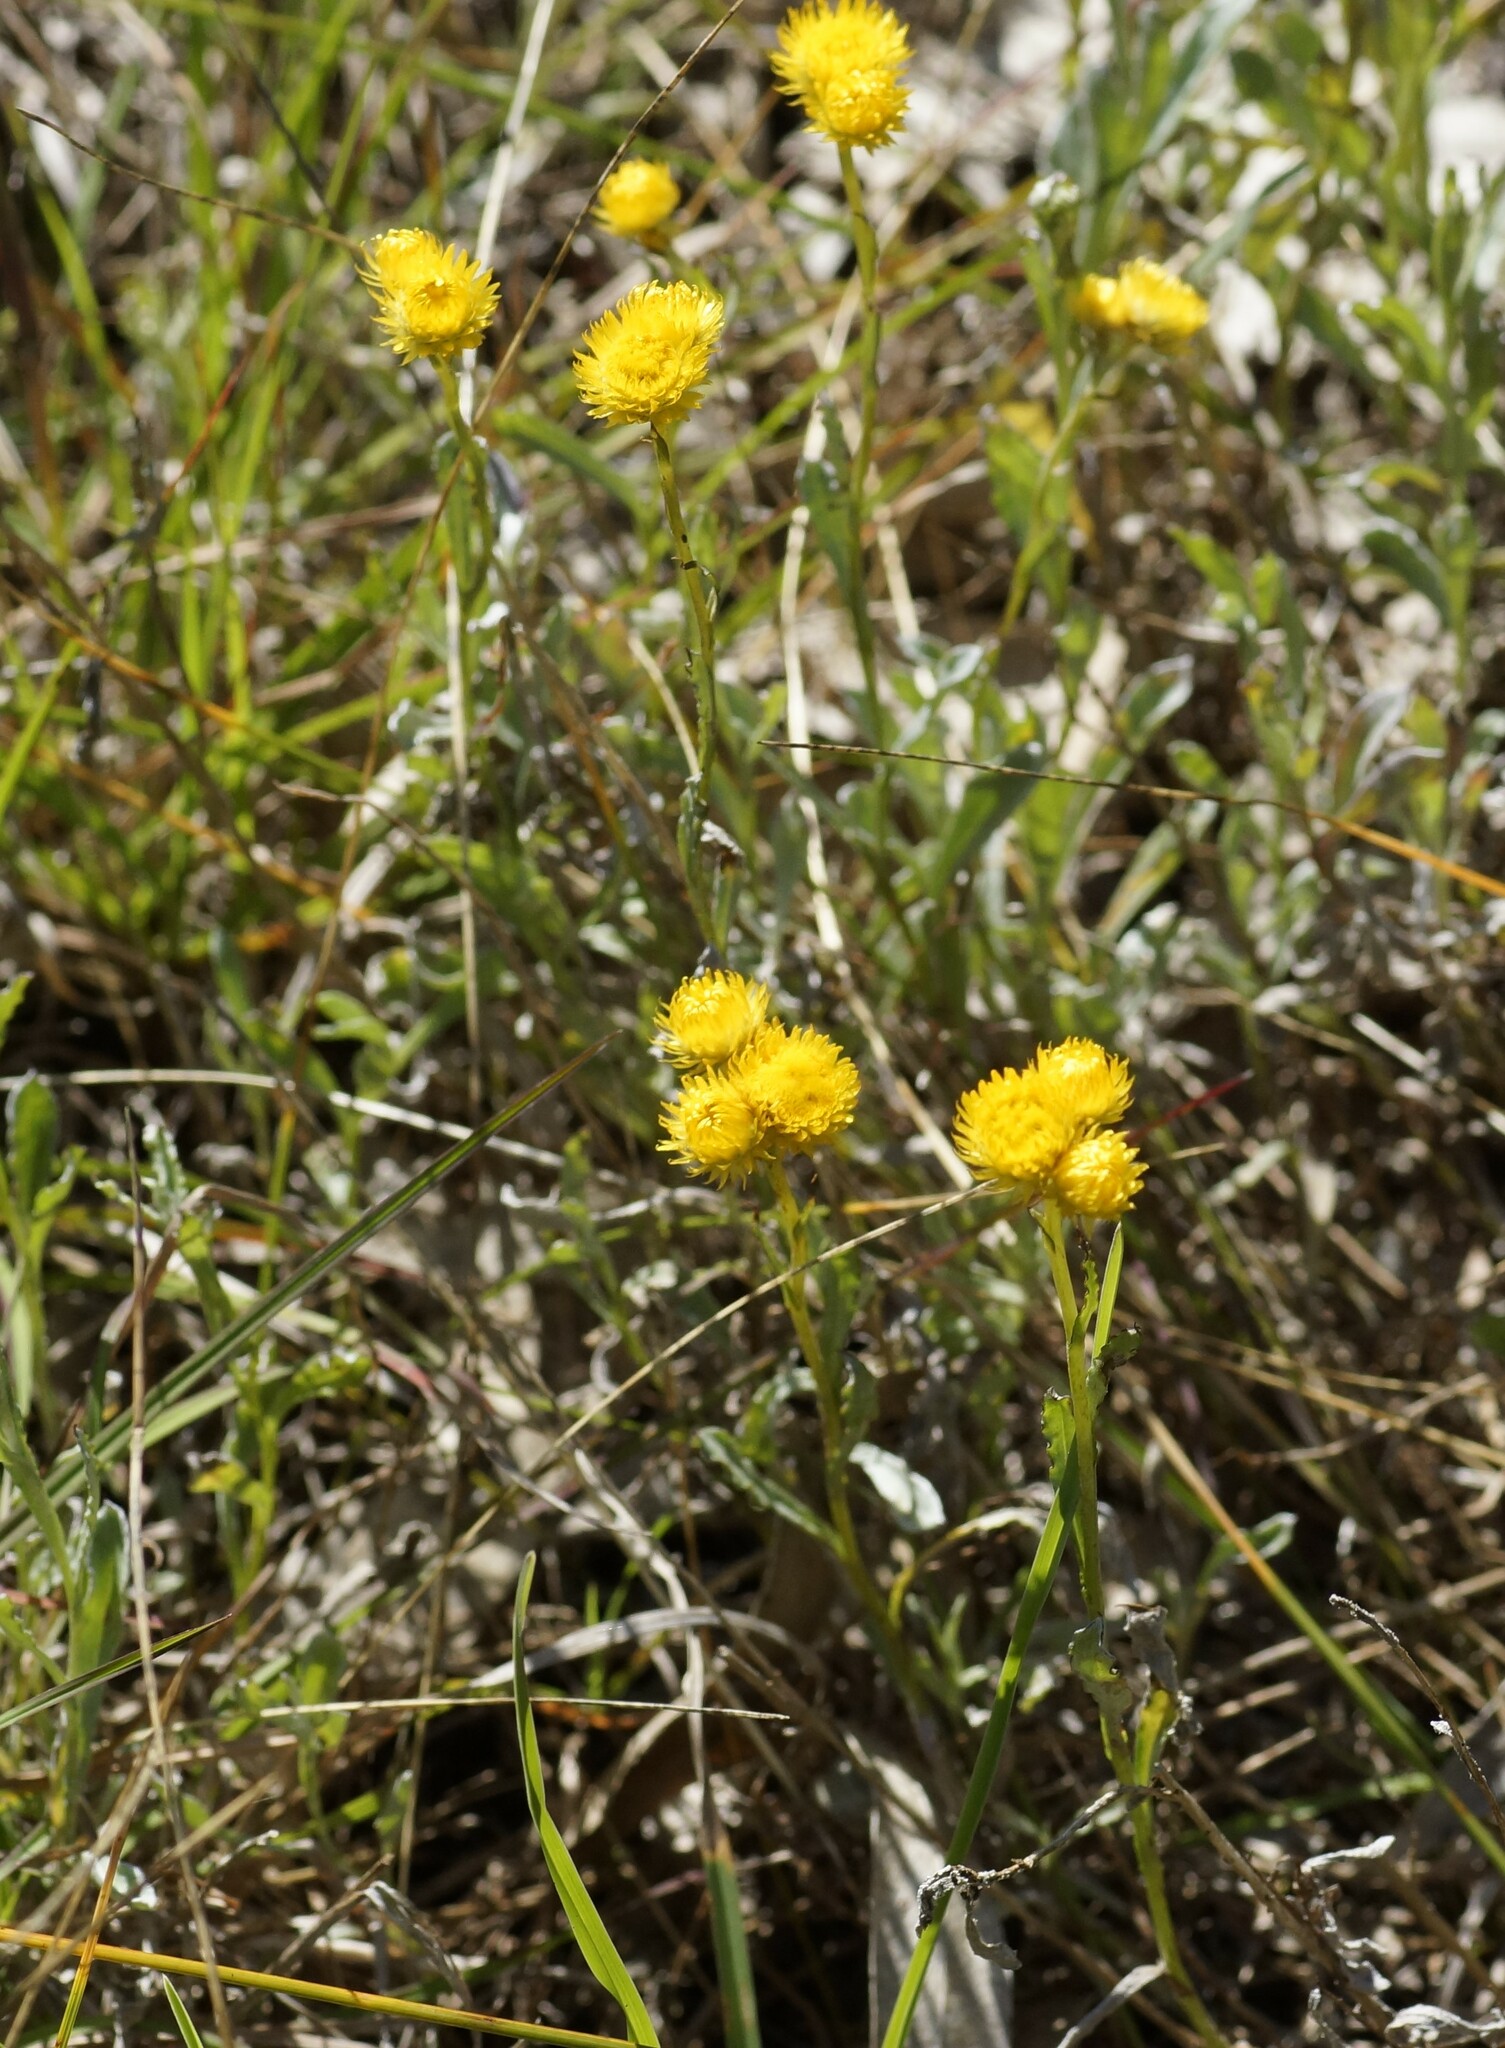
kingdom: Plantae
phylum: Tracheophyta
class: Magnoliopsida
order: Asterales
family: Asteraceae
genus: Chrysocephalum
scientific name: Chrysocephalum apiculatum
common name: Common everlasting
